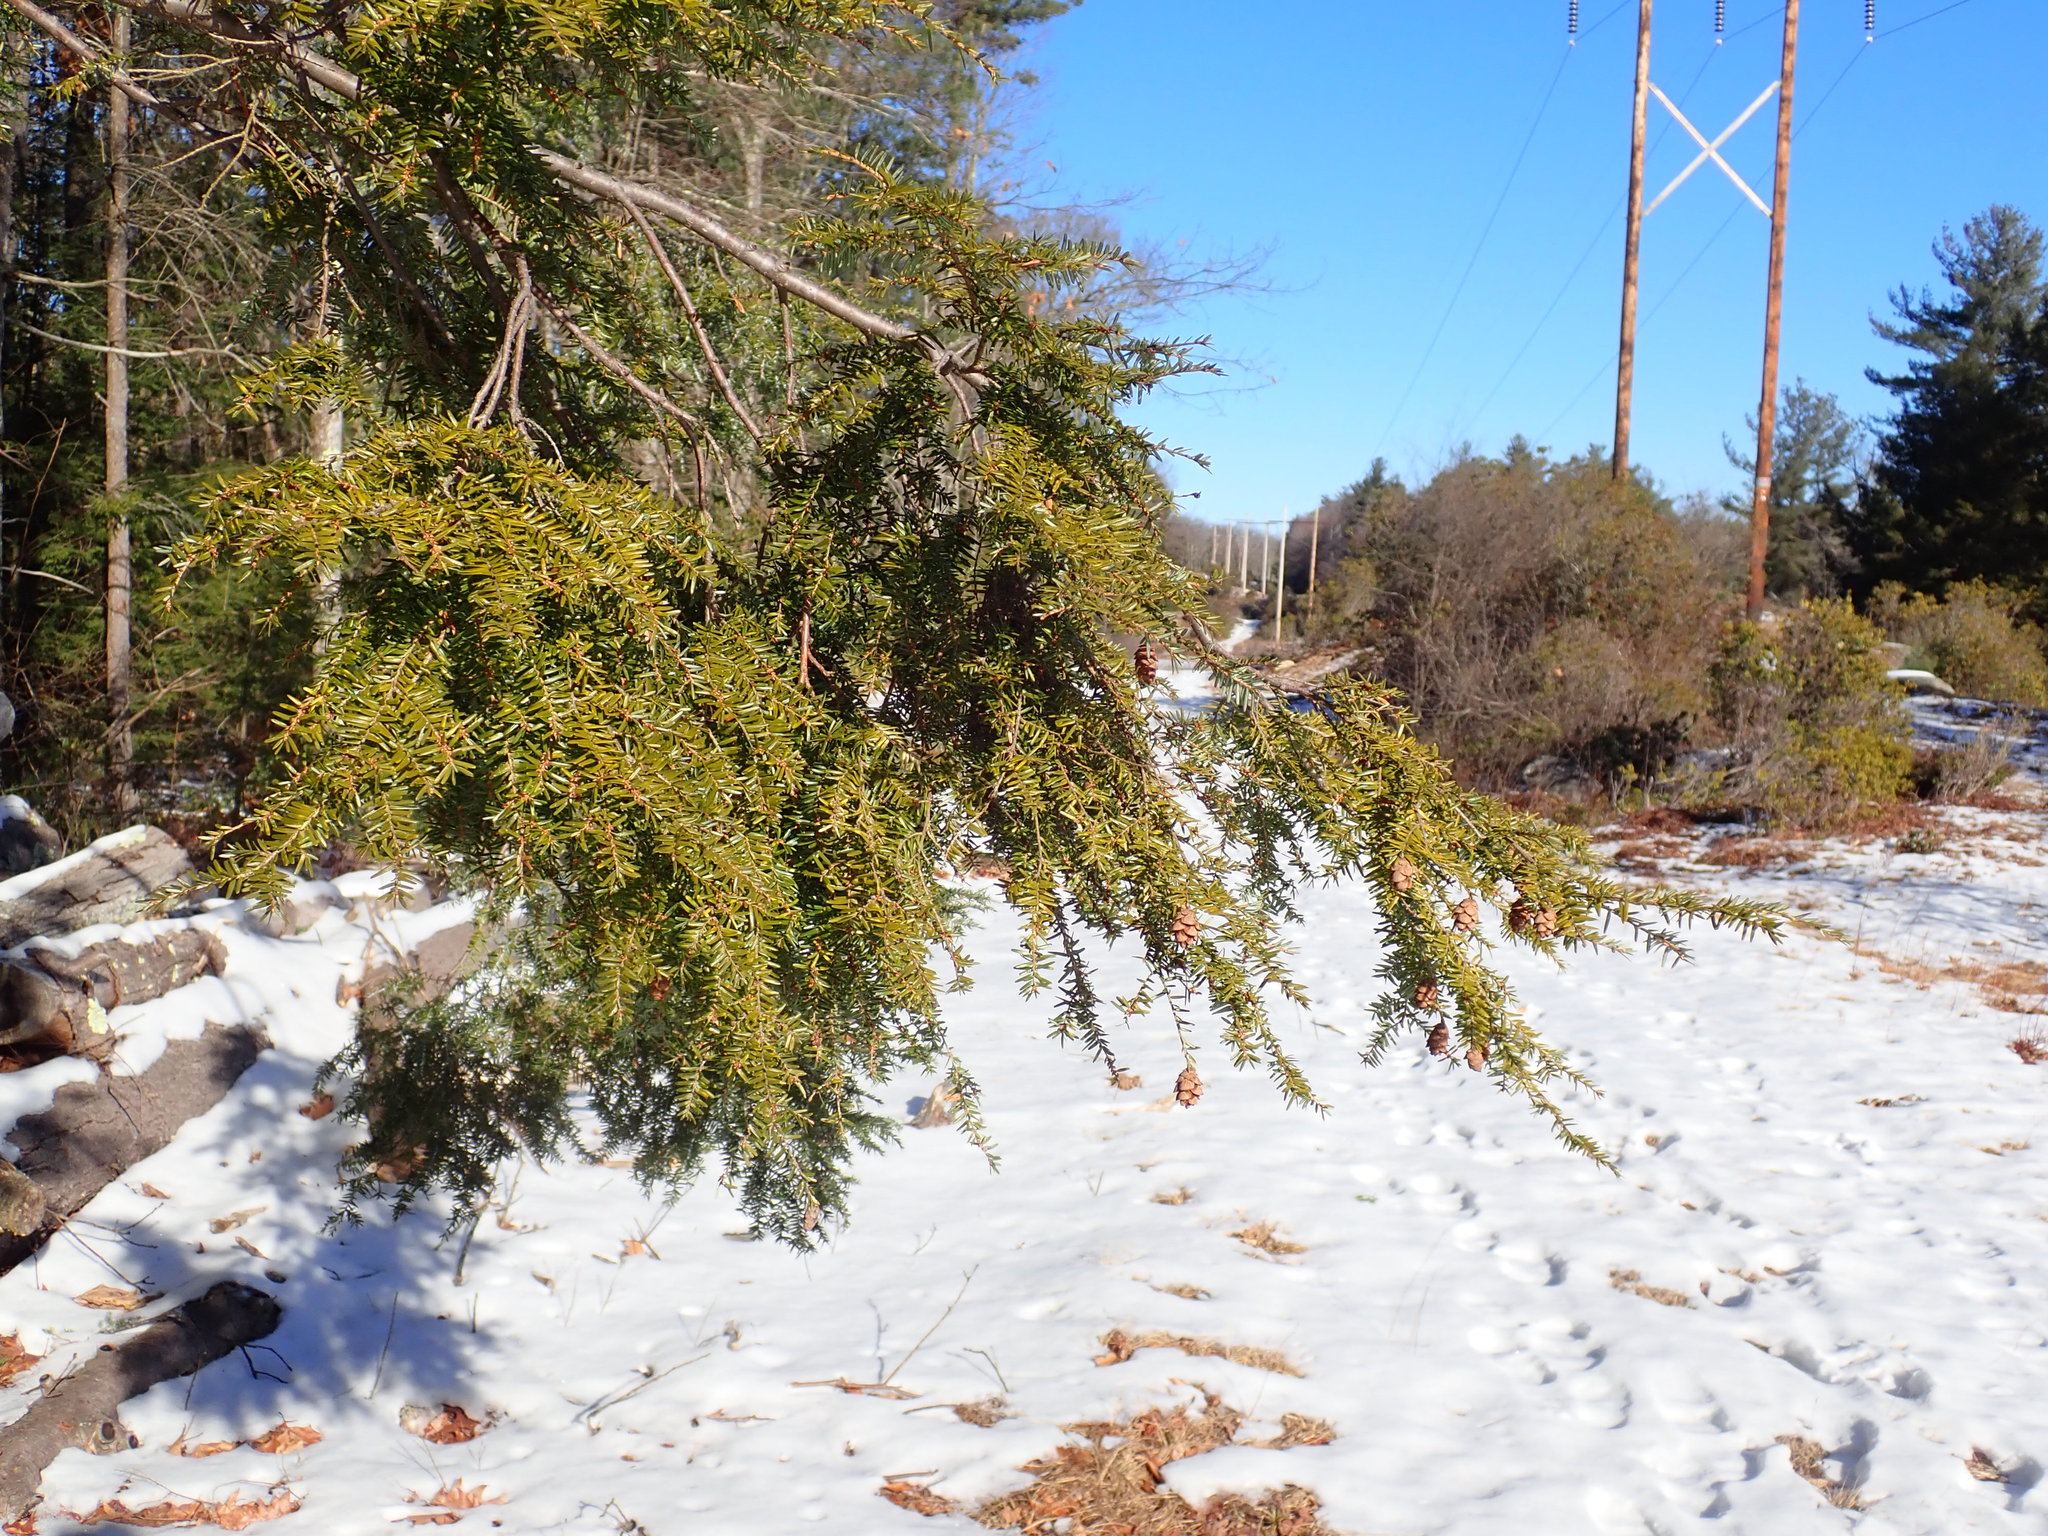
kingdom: Plantae
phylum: Tracheophyta
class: Pinopsida
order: Pinales
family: Pinaceae
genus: Tsuga
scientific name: Tsuga canadensis
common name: Eastern hemlock
